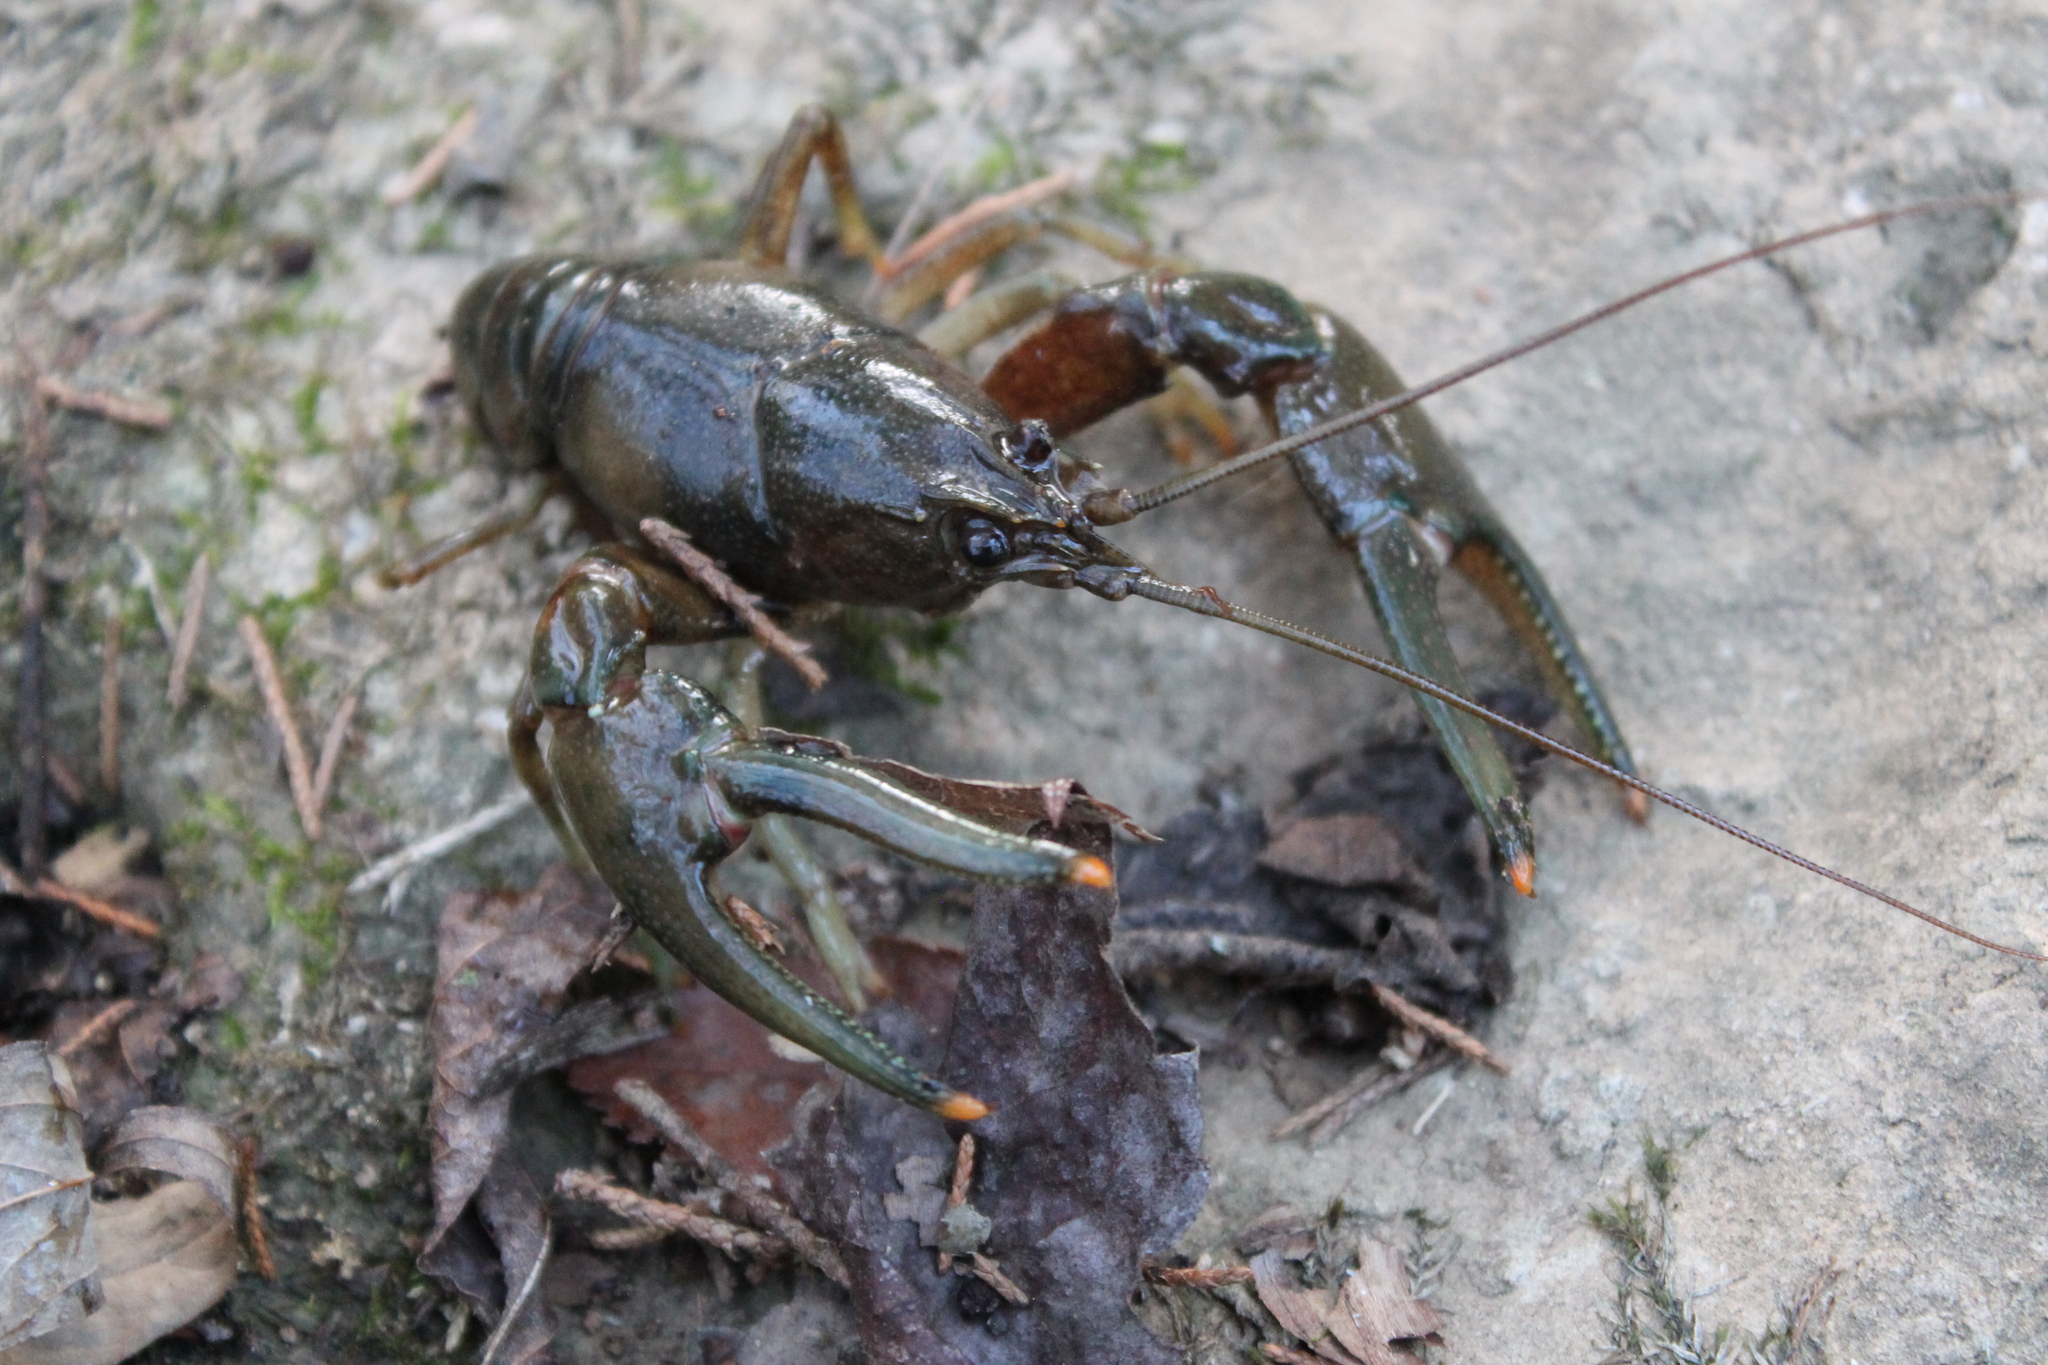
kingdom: Animalia
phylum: Arthropoda
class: Malacostraca
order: Decapoda
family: Cambaridae
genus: Faxonius
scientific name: Faxonius placidus
